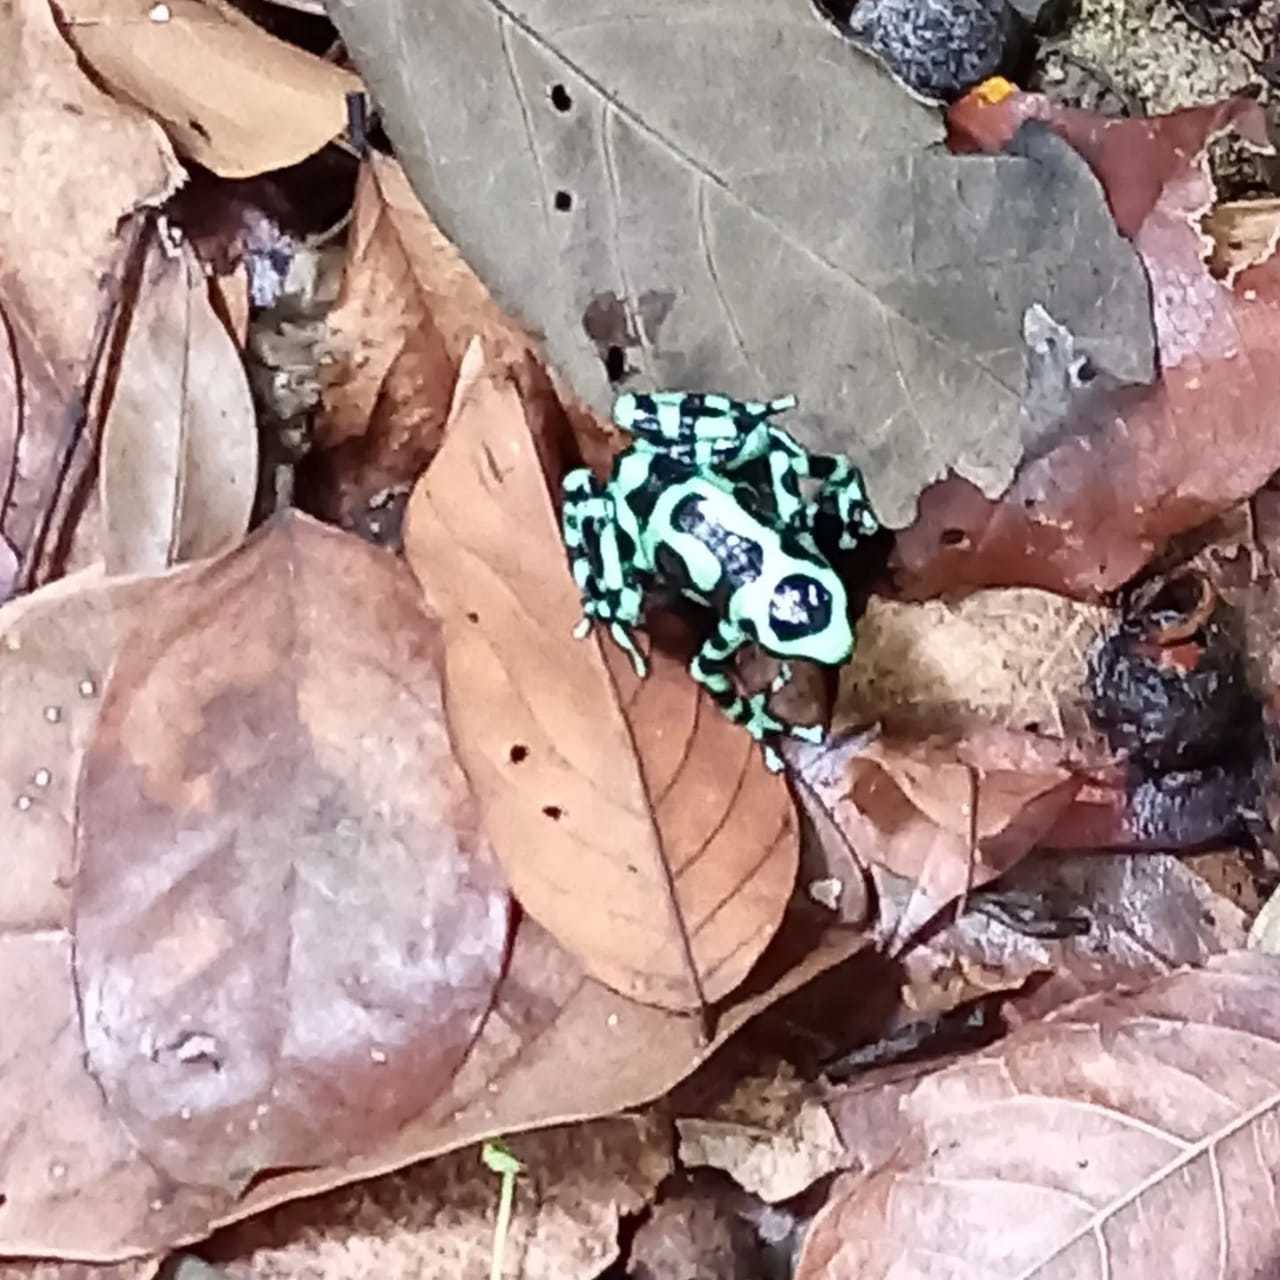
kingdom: Animalia
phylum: Chordata
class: Amphibia
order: Anura
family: Dendrobatidae
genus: Dendrobates
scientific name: Dendrobates auratus
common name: Green and black poison dart frog
